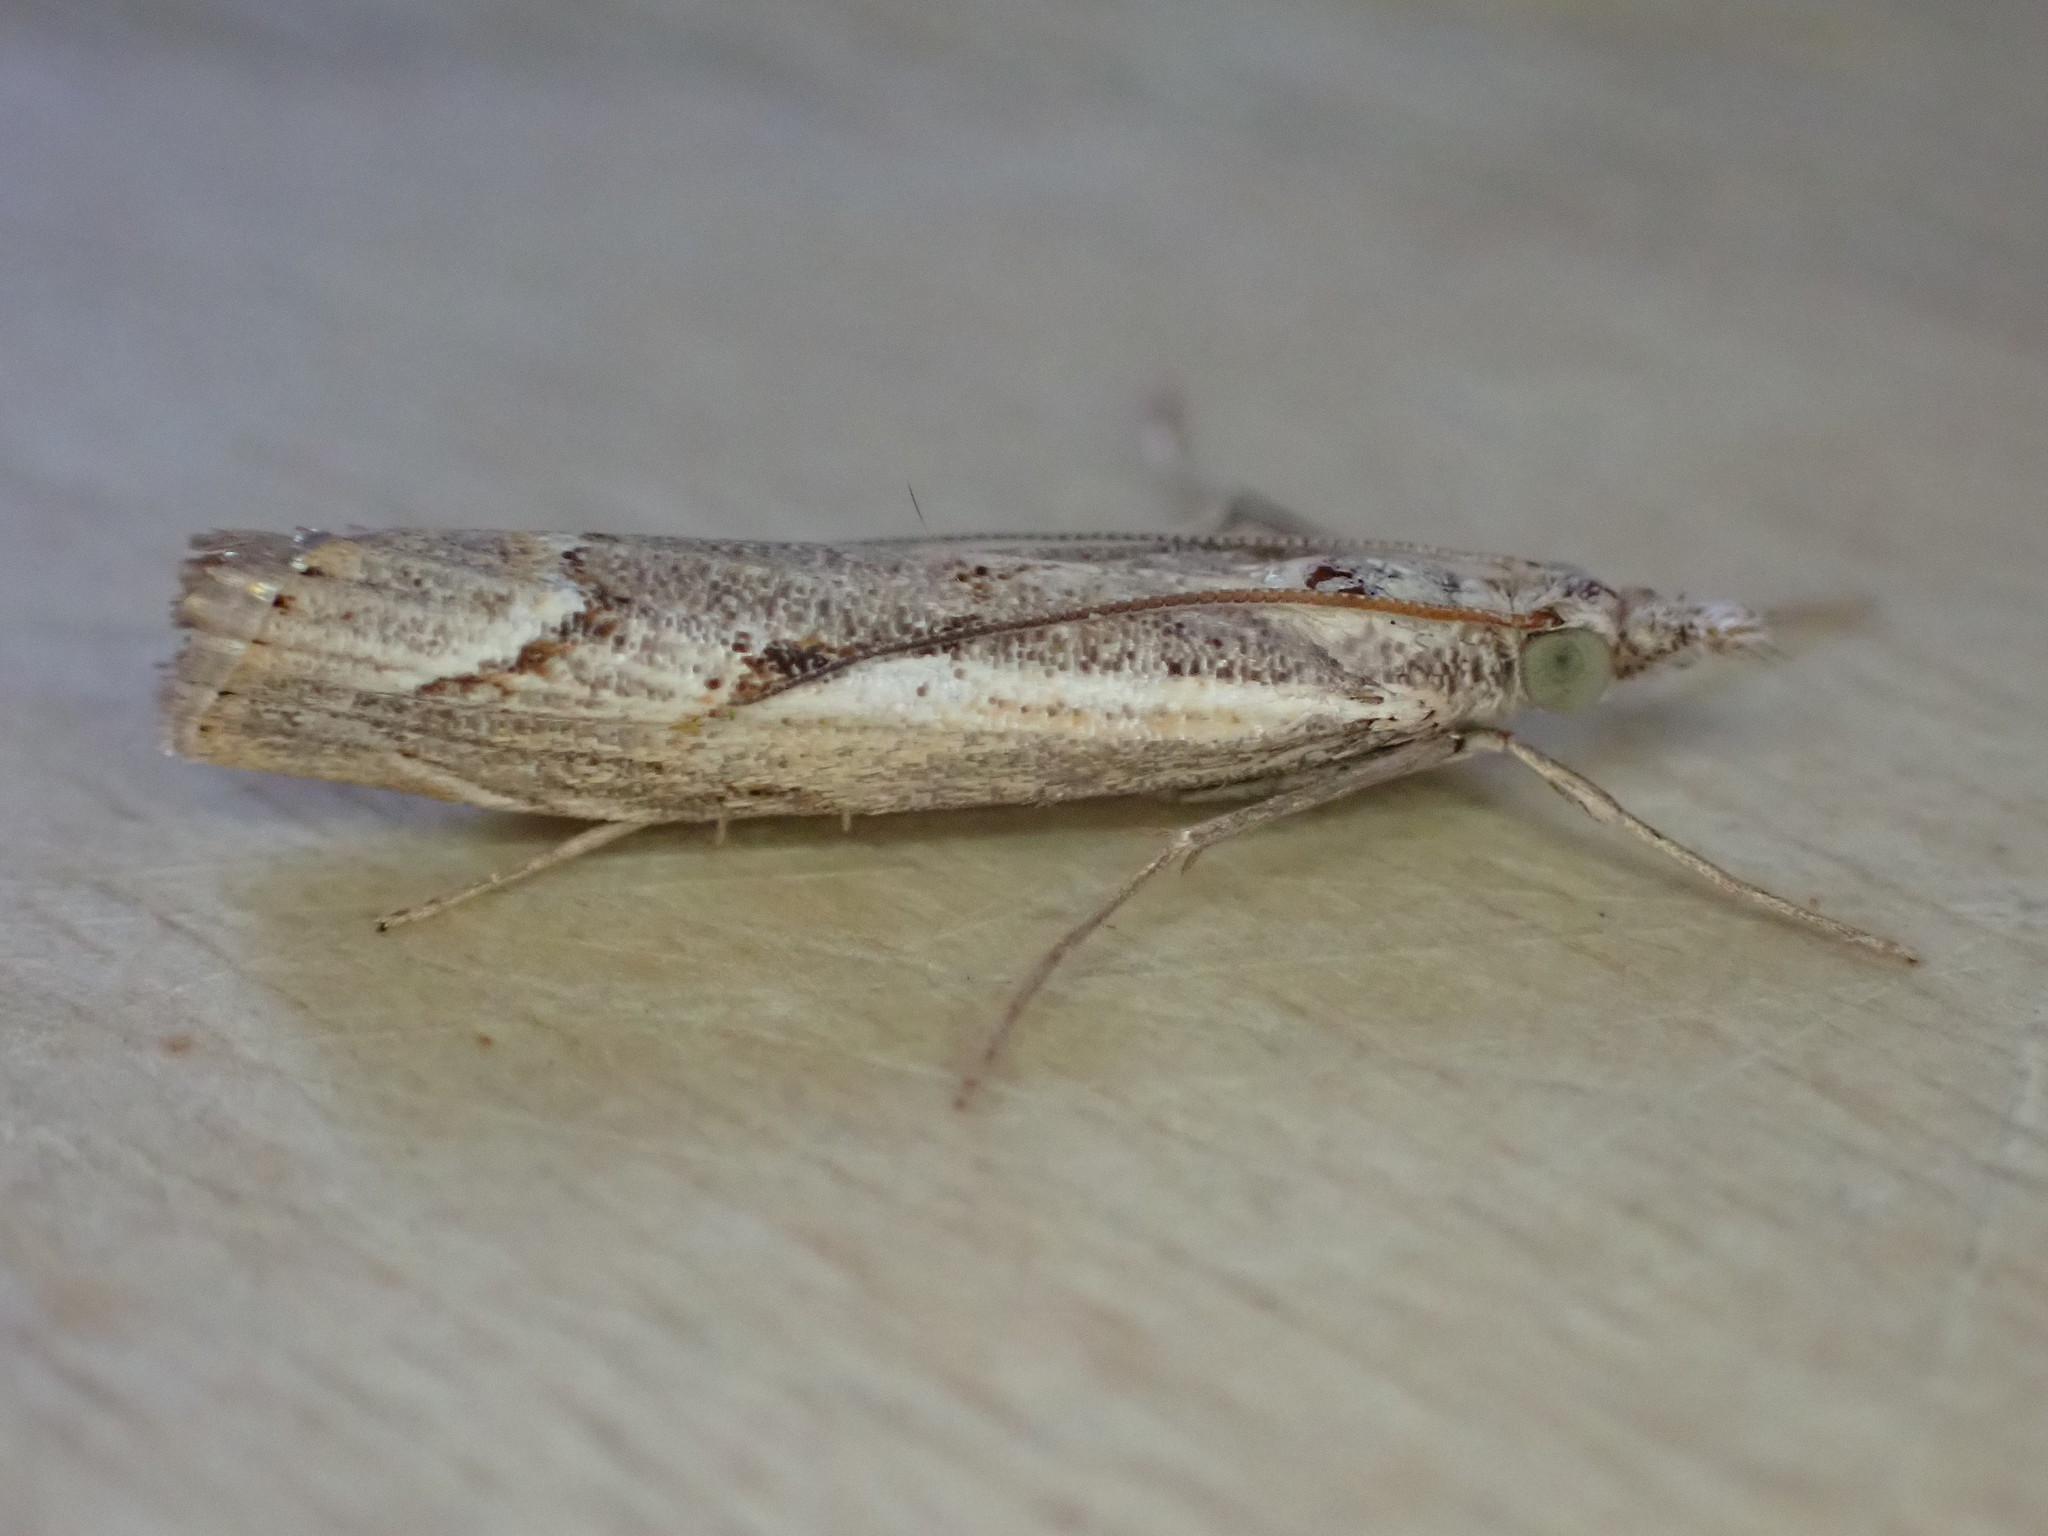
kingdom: Animalia
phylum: Arthropoda
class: Insecta
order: Lepidoptera
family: Crambidae
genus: Agriphila
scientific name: Agriphila geniculea
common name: Elbow-stripe grass-veneer
